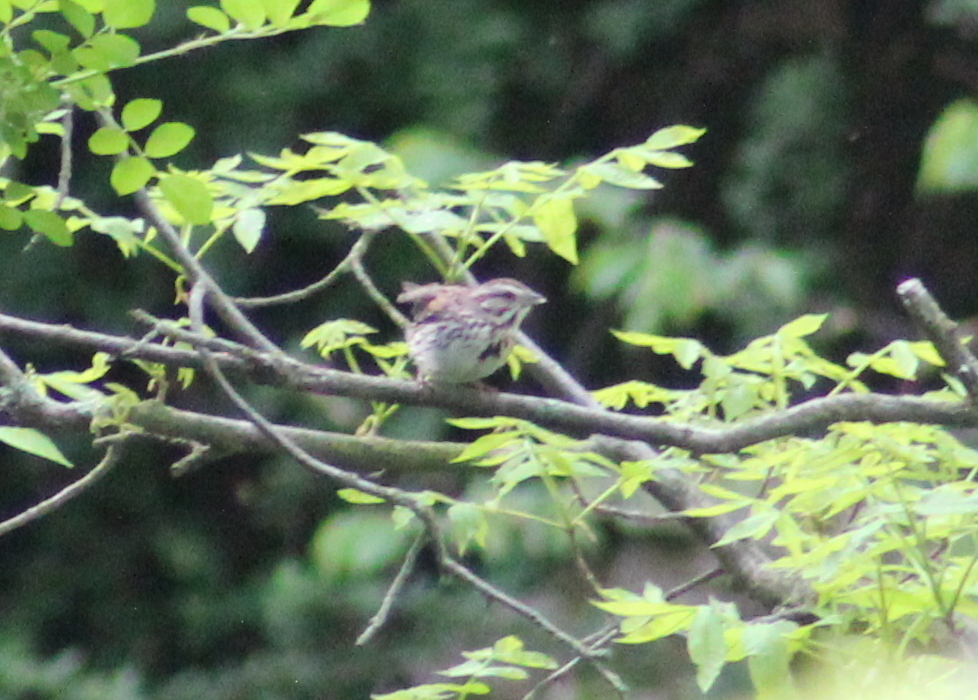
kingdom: Animalia
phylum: Chordata
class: Aves
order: Passeriformes
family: Passerellidae
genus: Melospiza
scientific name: Melospiza melodia
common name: Song sparrow
